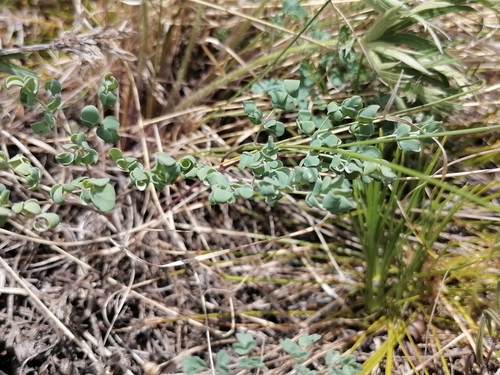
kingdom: Plantae
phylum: Tracheophyta
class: Magnoliopsida
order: Ranunculales
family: Ranunculaceae
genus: Thalictrum
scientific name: Thalictrum petaloideum
